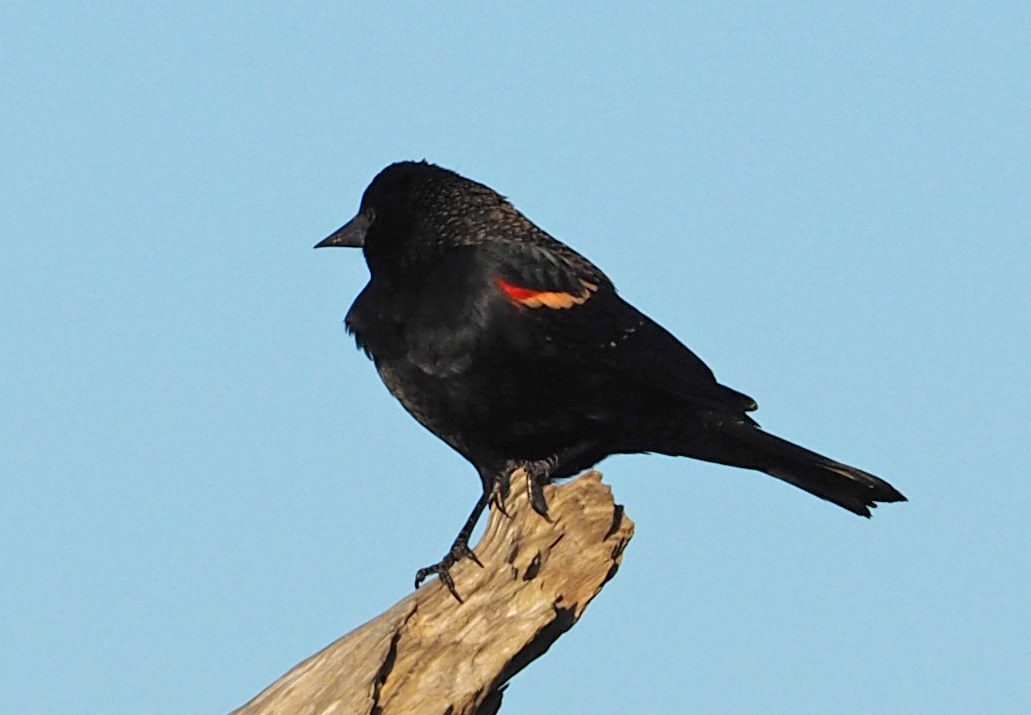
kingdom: Animalia
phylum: Chordata
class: Aves
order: Passeriformes
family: Icteridae
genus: Agelaius
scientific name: Agelaius phoeniceus
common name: Red-winged blackbird
